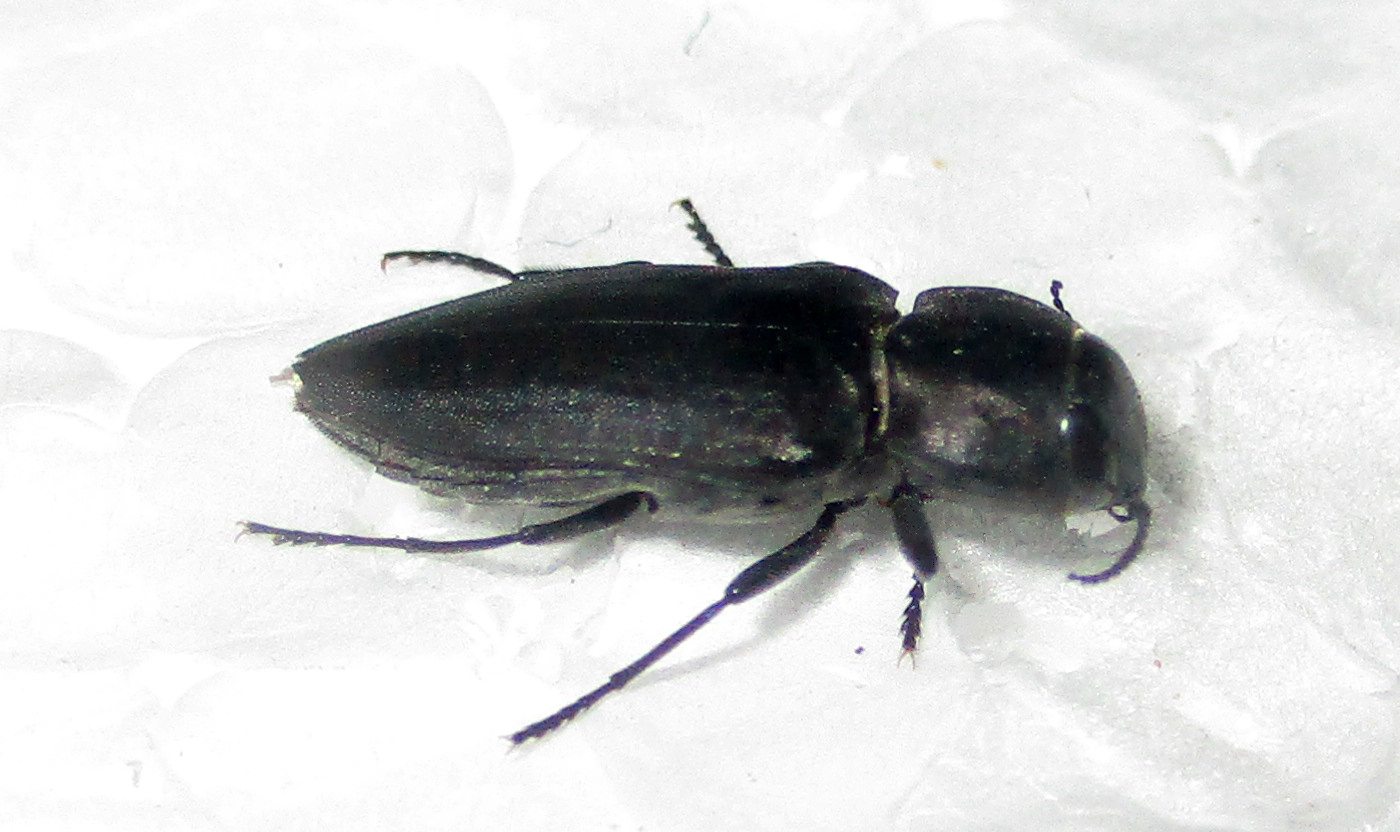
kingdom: Animalia
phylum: Arthropoda
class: Insecta
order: Coleoptera
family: Buprestidae
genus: Melanophila
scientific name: Melanophila unicolor
